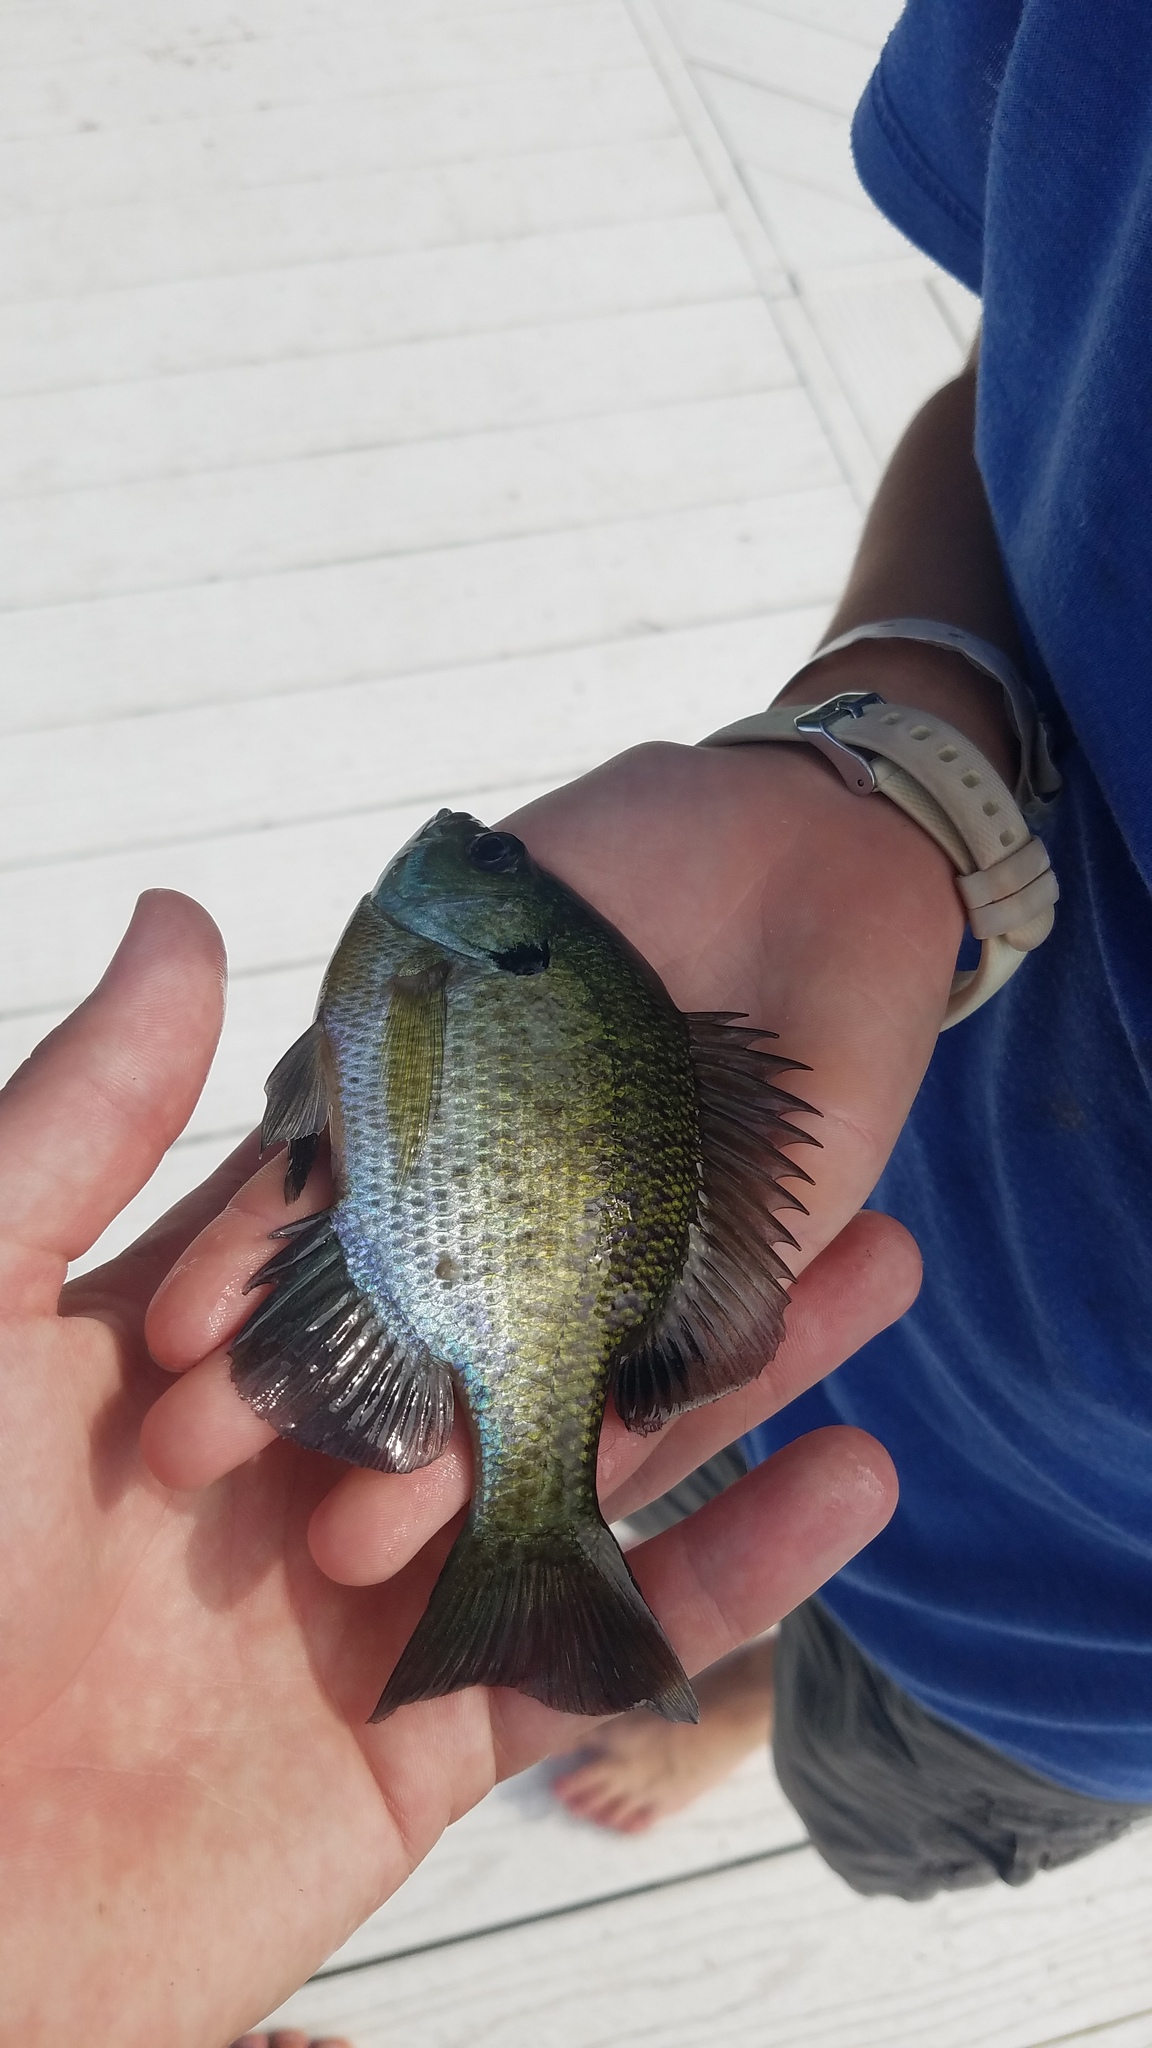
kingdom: Animalia
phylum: Chordata
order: Perciformes
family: Centrarchidae
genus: Lepomis
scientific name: Lepomis macrochirus
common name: Bluegill
